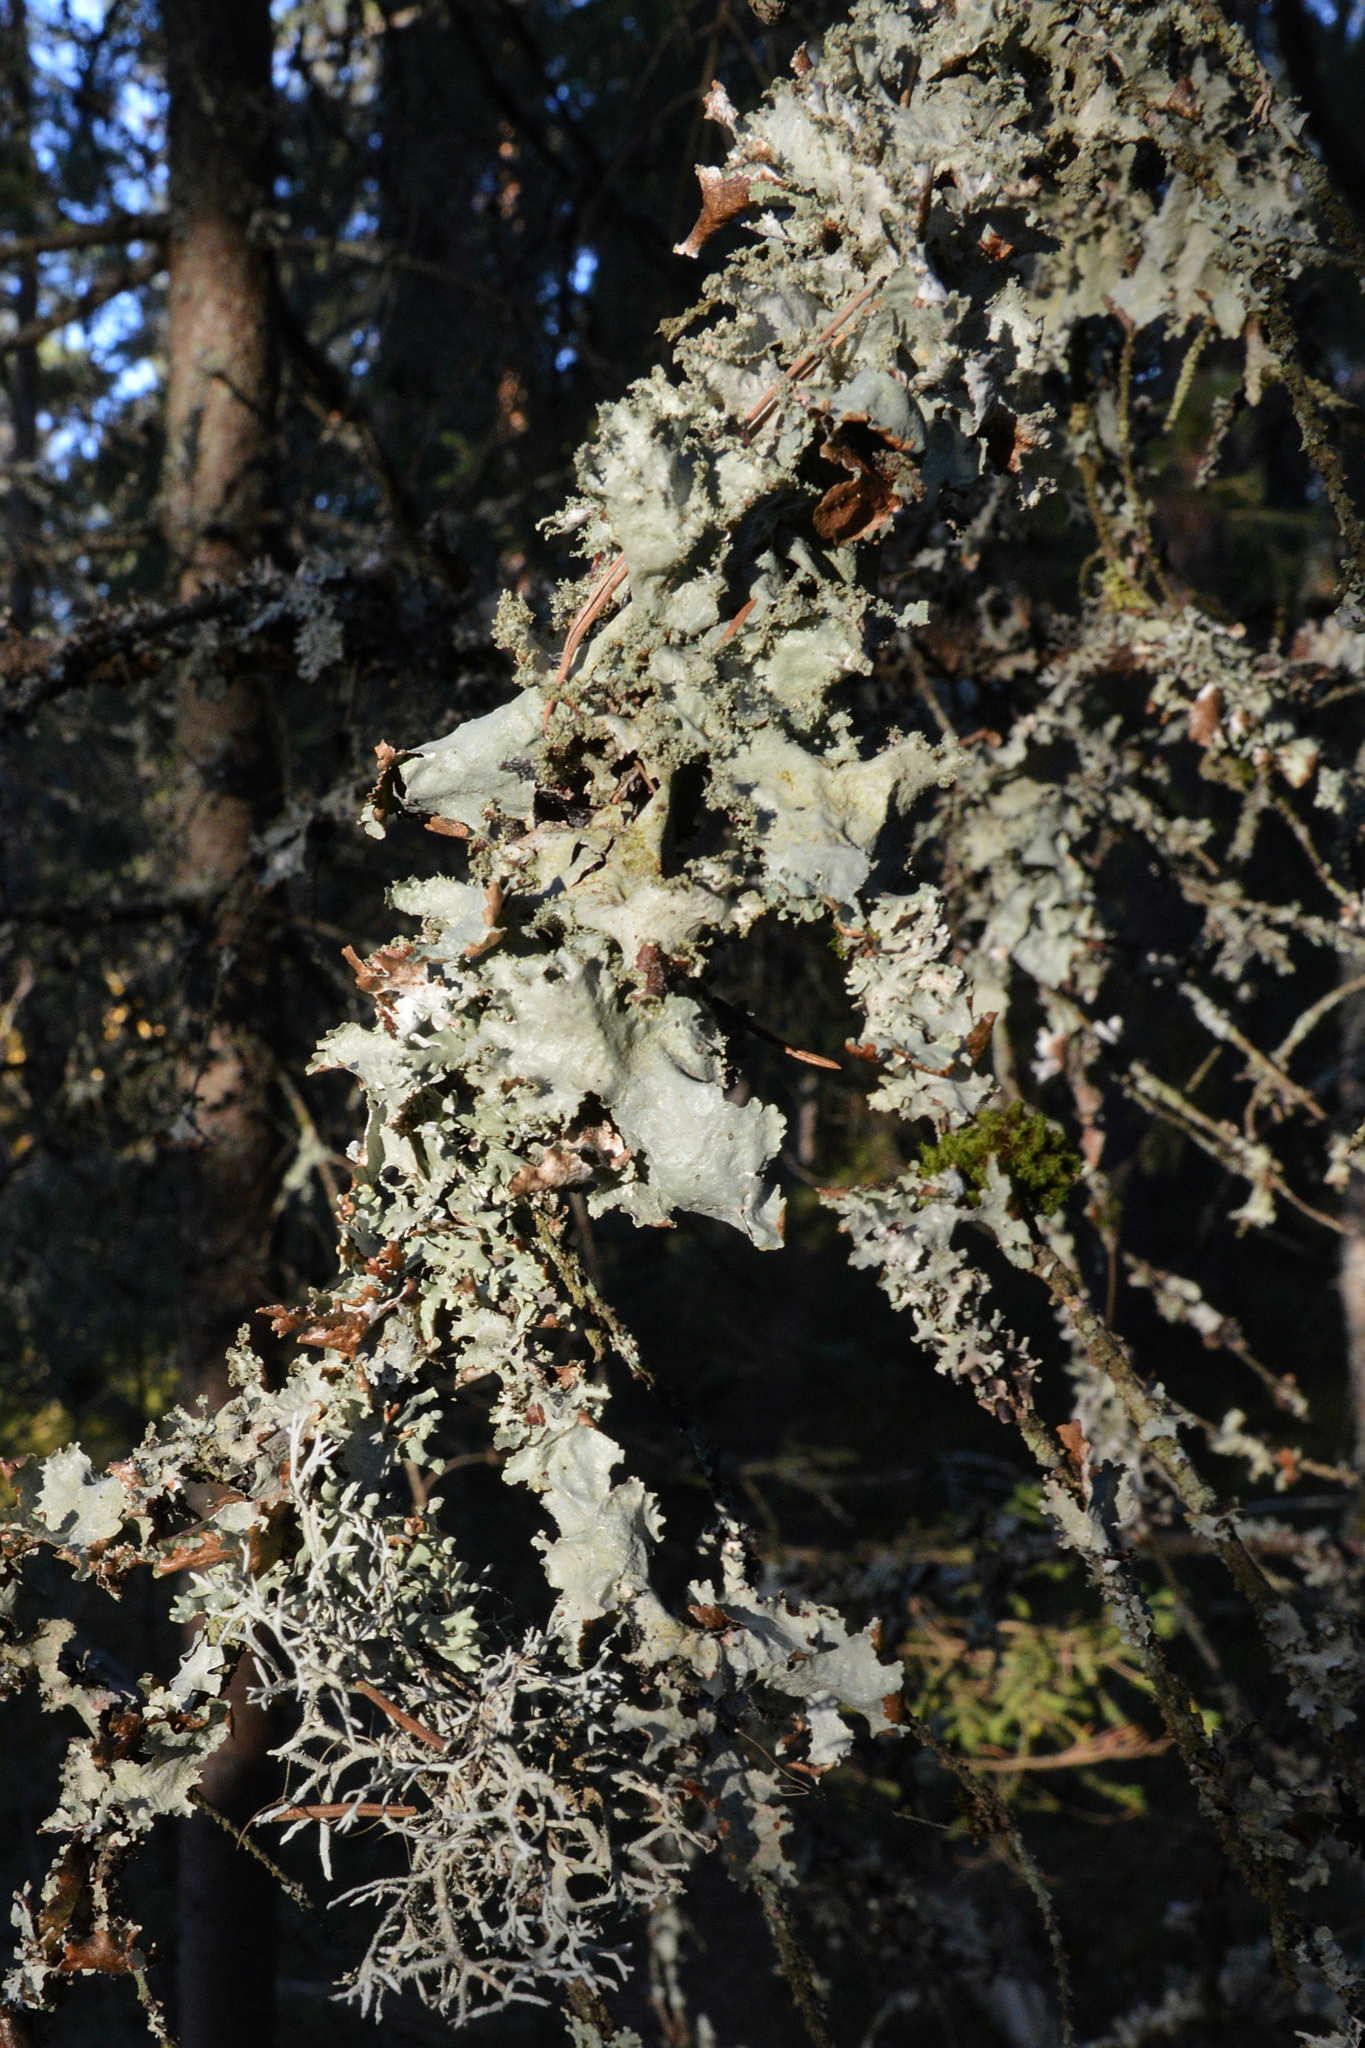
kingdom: Fungi
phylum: Ascomycota
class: Lecanoromycetes
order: Lecanorales
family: Parmeliaceae
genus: Platismatia
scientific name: Platismatia glauca
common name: Varied rag lichen
